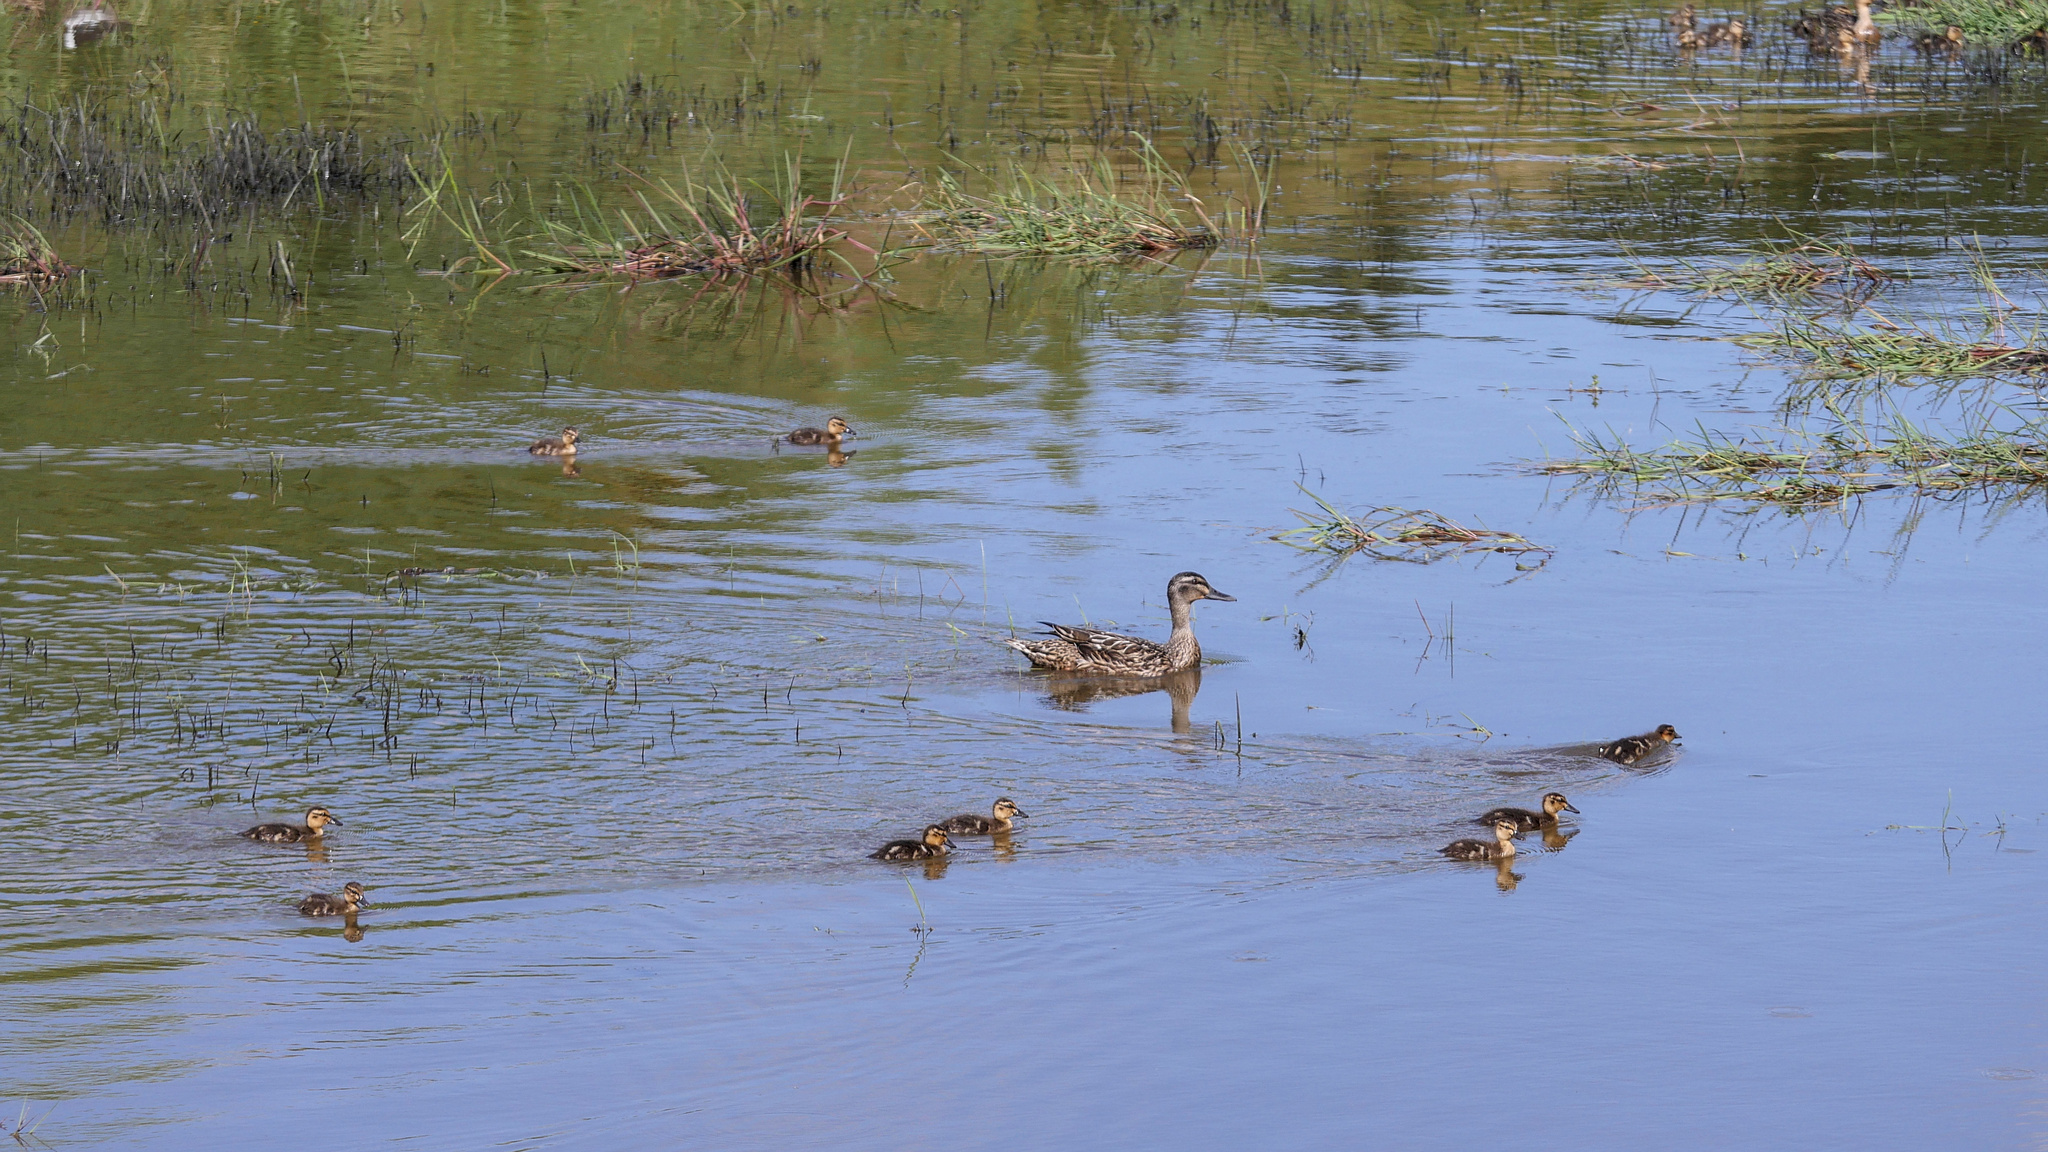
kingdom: Animalia
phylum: Chordata
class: Aves
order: Anseriformes
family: Anatidae
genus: Anas
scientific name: Anas
